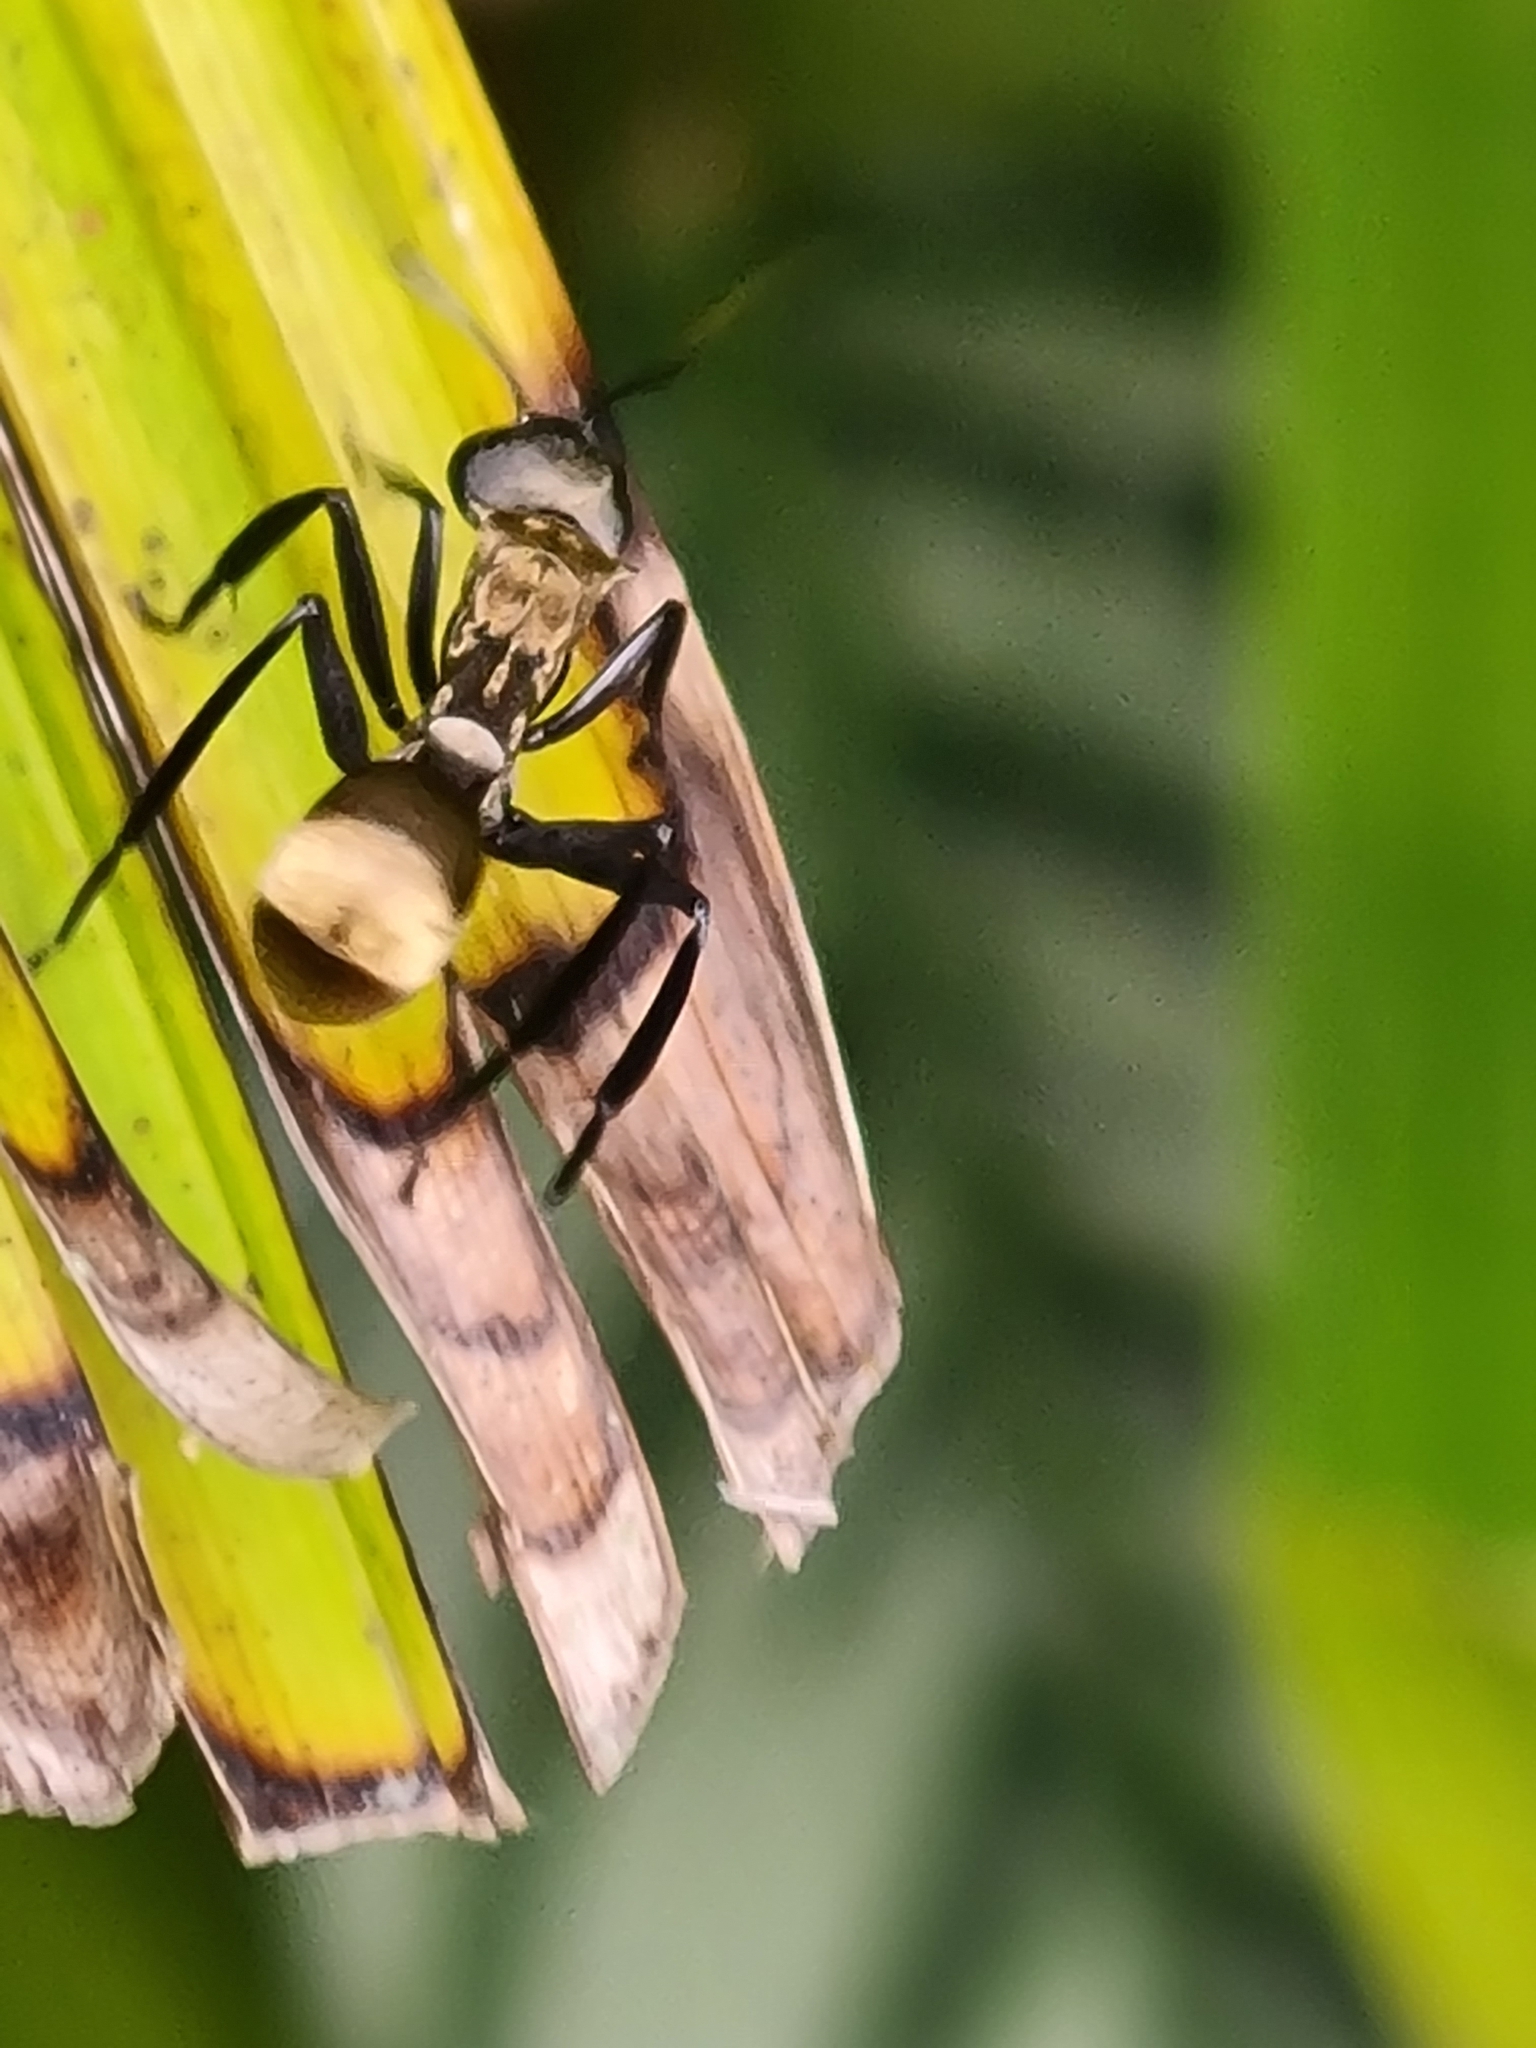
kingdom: Animalia
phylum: Arthropoda
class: Insecta
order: Hymenoptera
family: Formicidae
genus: Camponotus
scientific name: Camponotus sericeiventris
